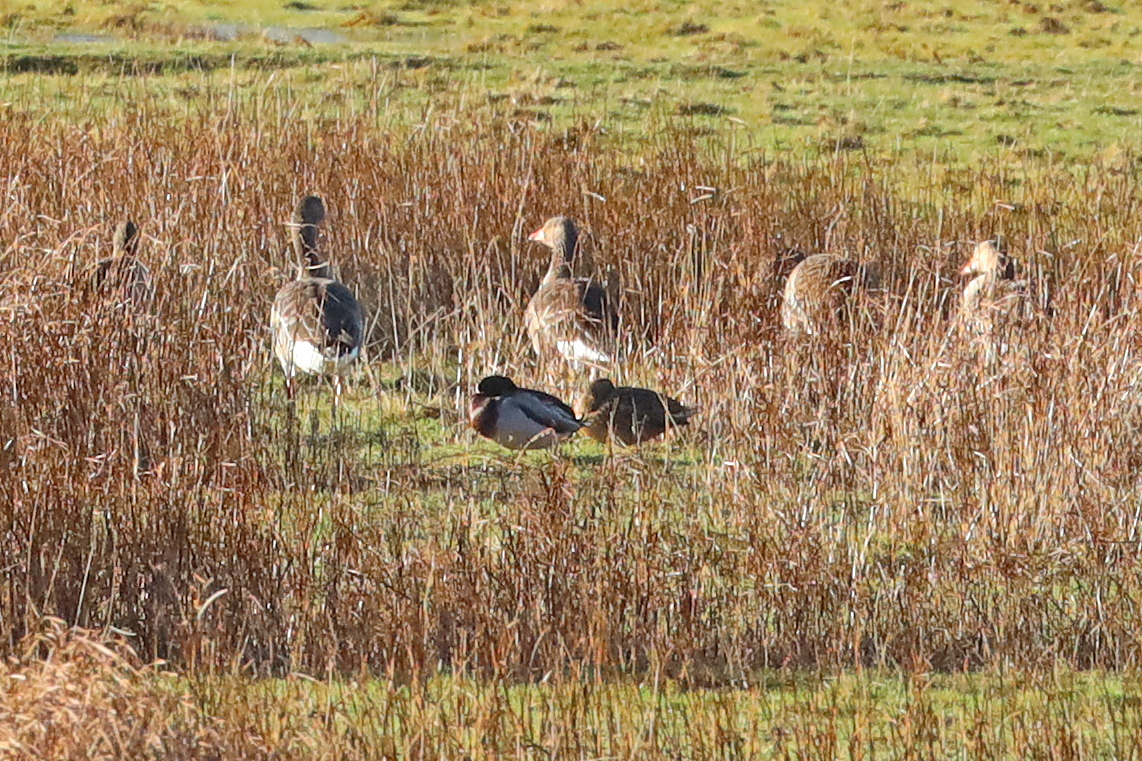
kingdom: Animalia
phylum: Chordata
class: Aves
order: Anseriformes
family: Anatidae
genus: Anas
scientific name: Anas platyrhynchos
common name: Mallard
